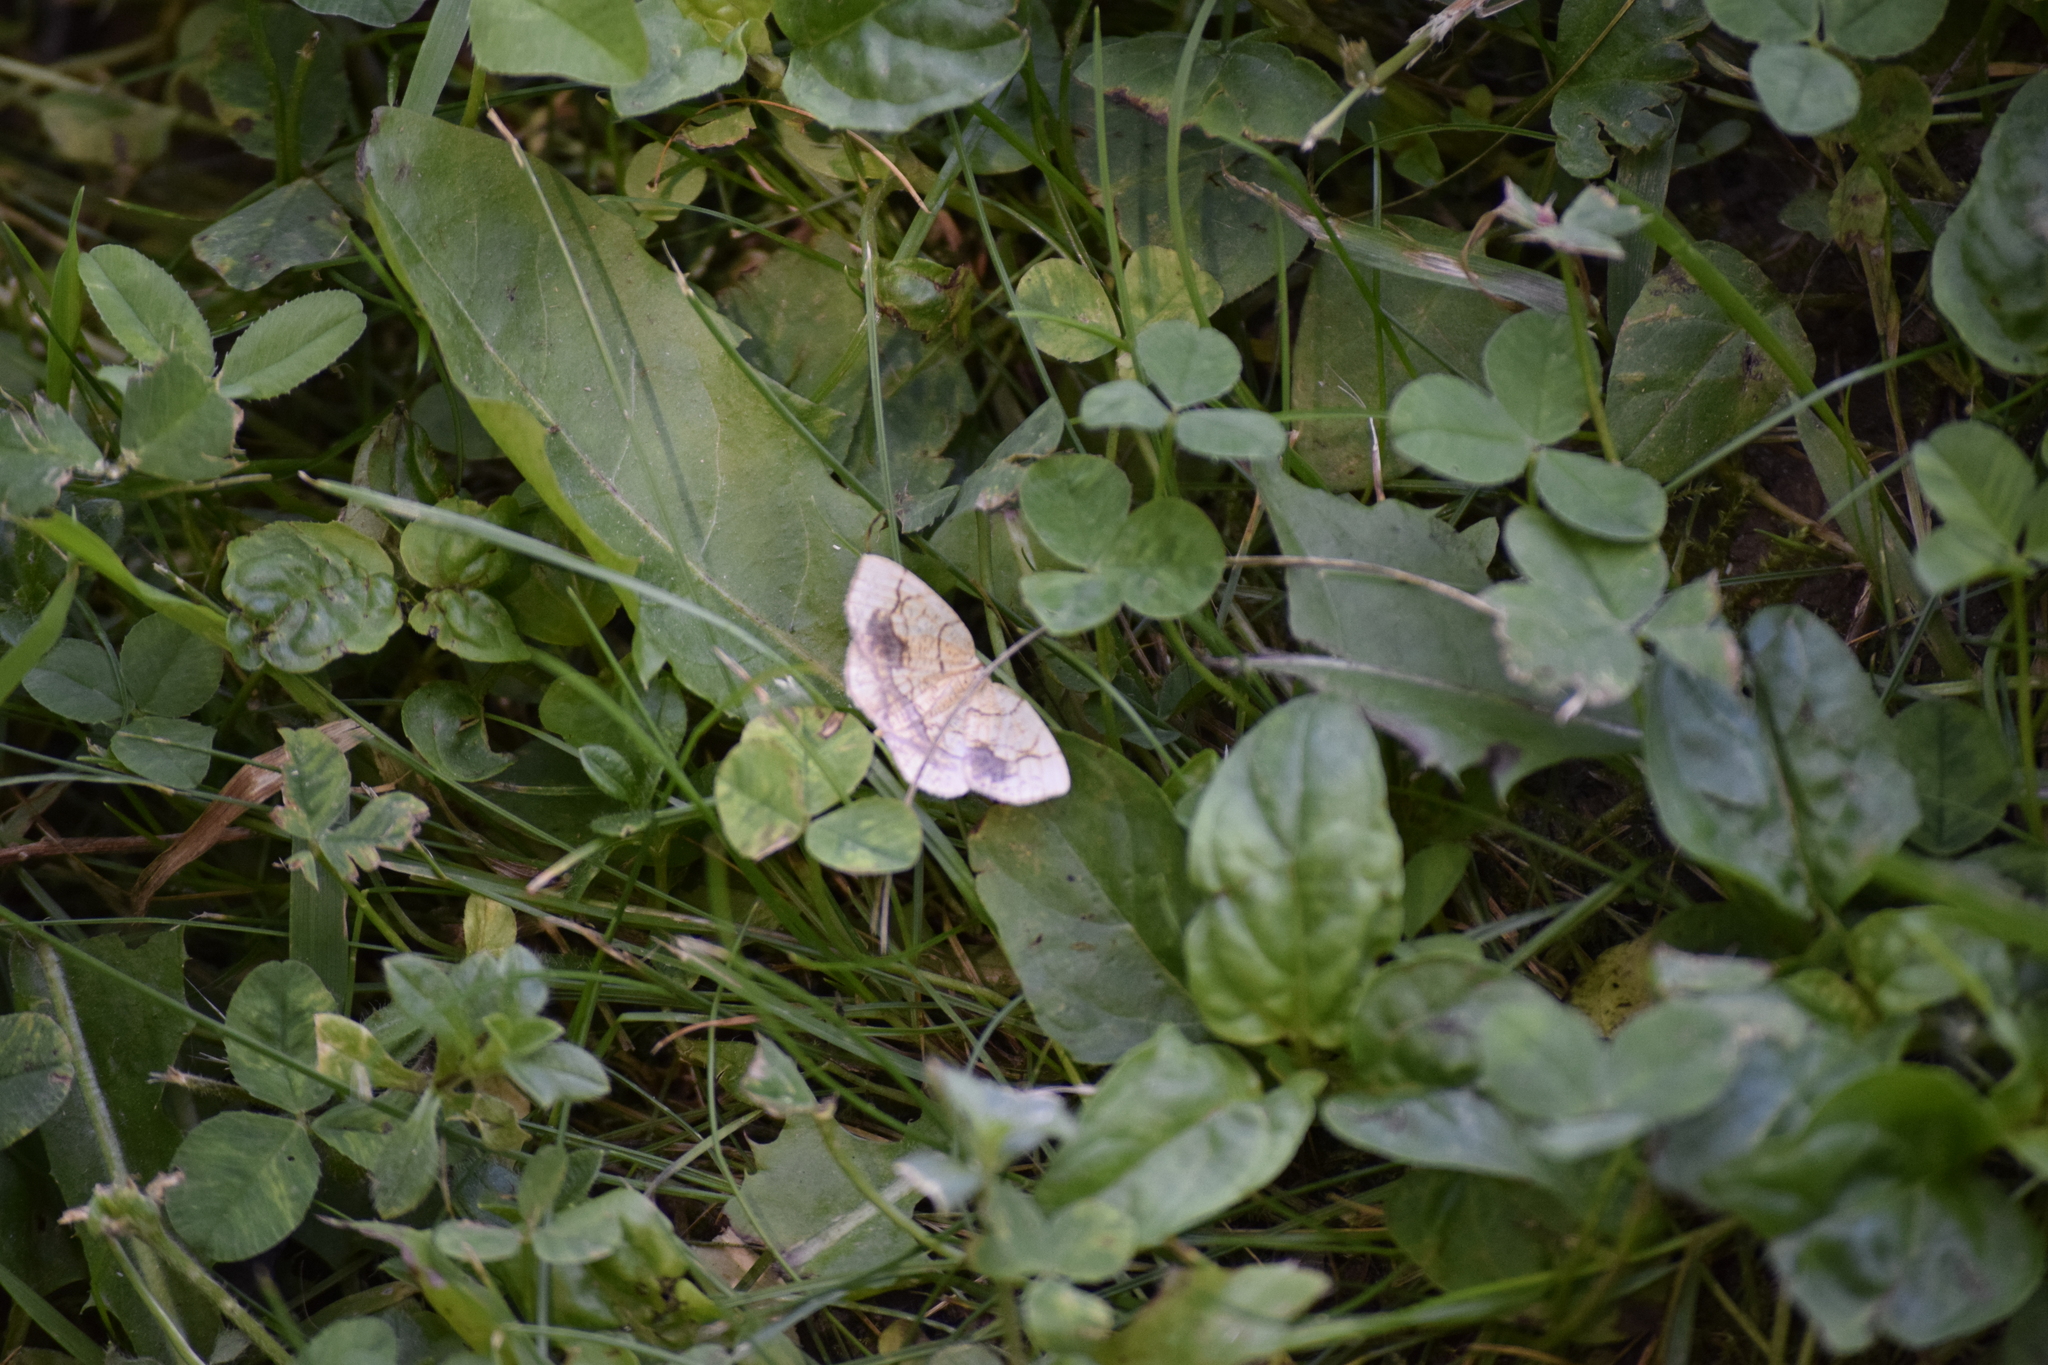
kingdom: Animalia
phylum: Arthropoda
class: Insecta
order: Lepidoptera
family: Geometridae
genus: Nematocampa
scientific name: Nematocampa resistaria
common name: Horned spanworm moth
